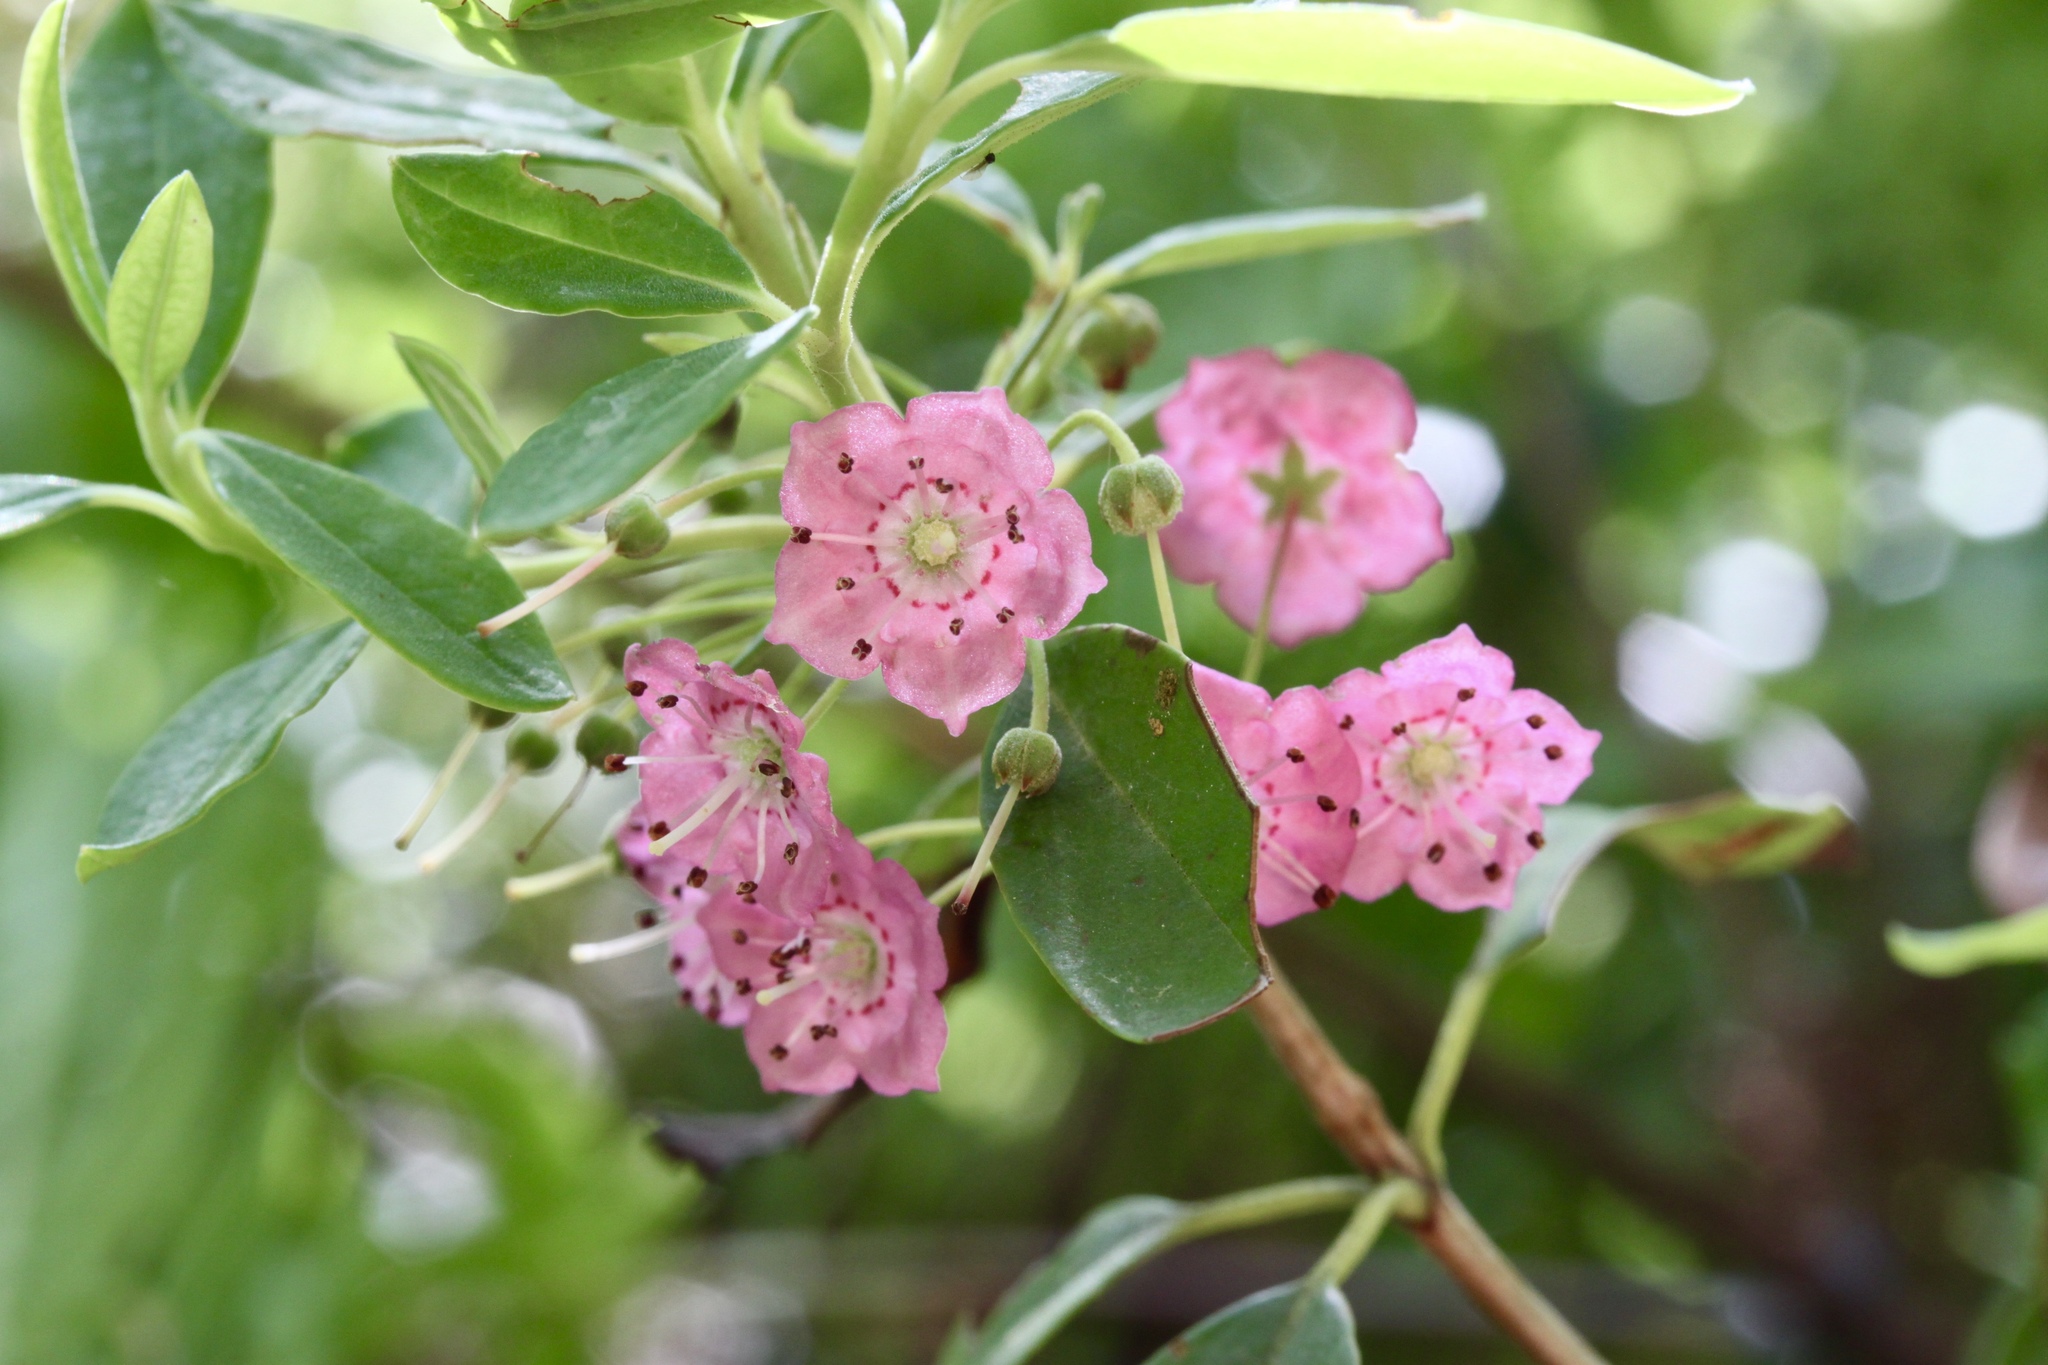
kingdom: Plantae
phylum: Tracheophyta
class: Magnoliopsida
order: Ericales
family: Ericaceae
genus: Kalmia
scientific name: Kalmia angustifolia
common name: Sheep-laurel
